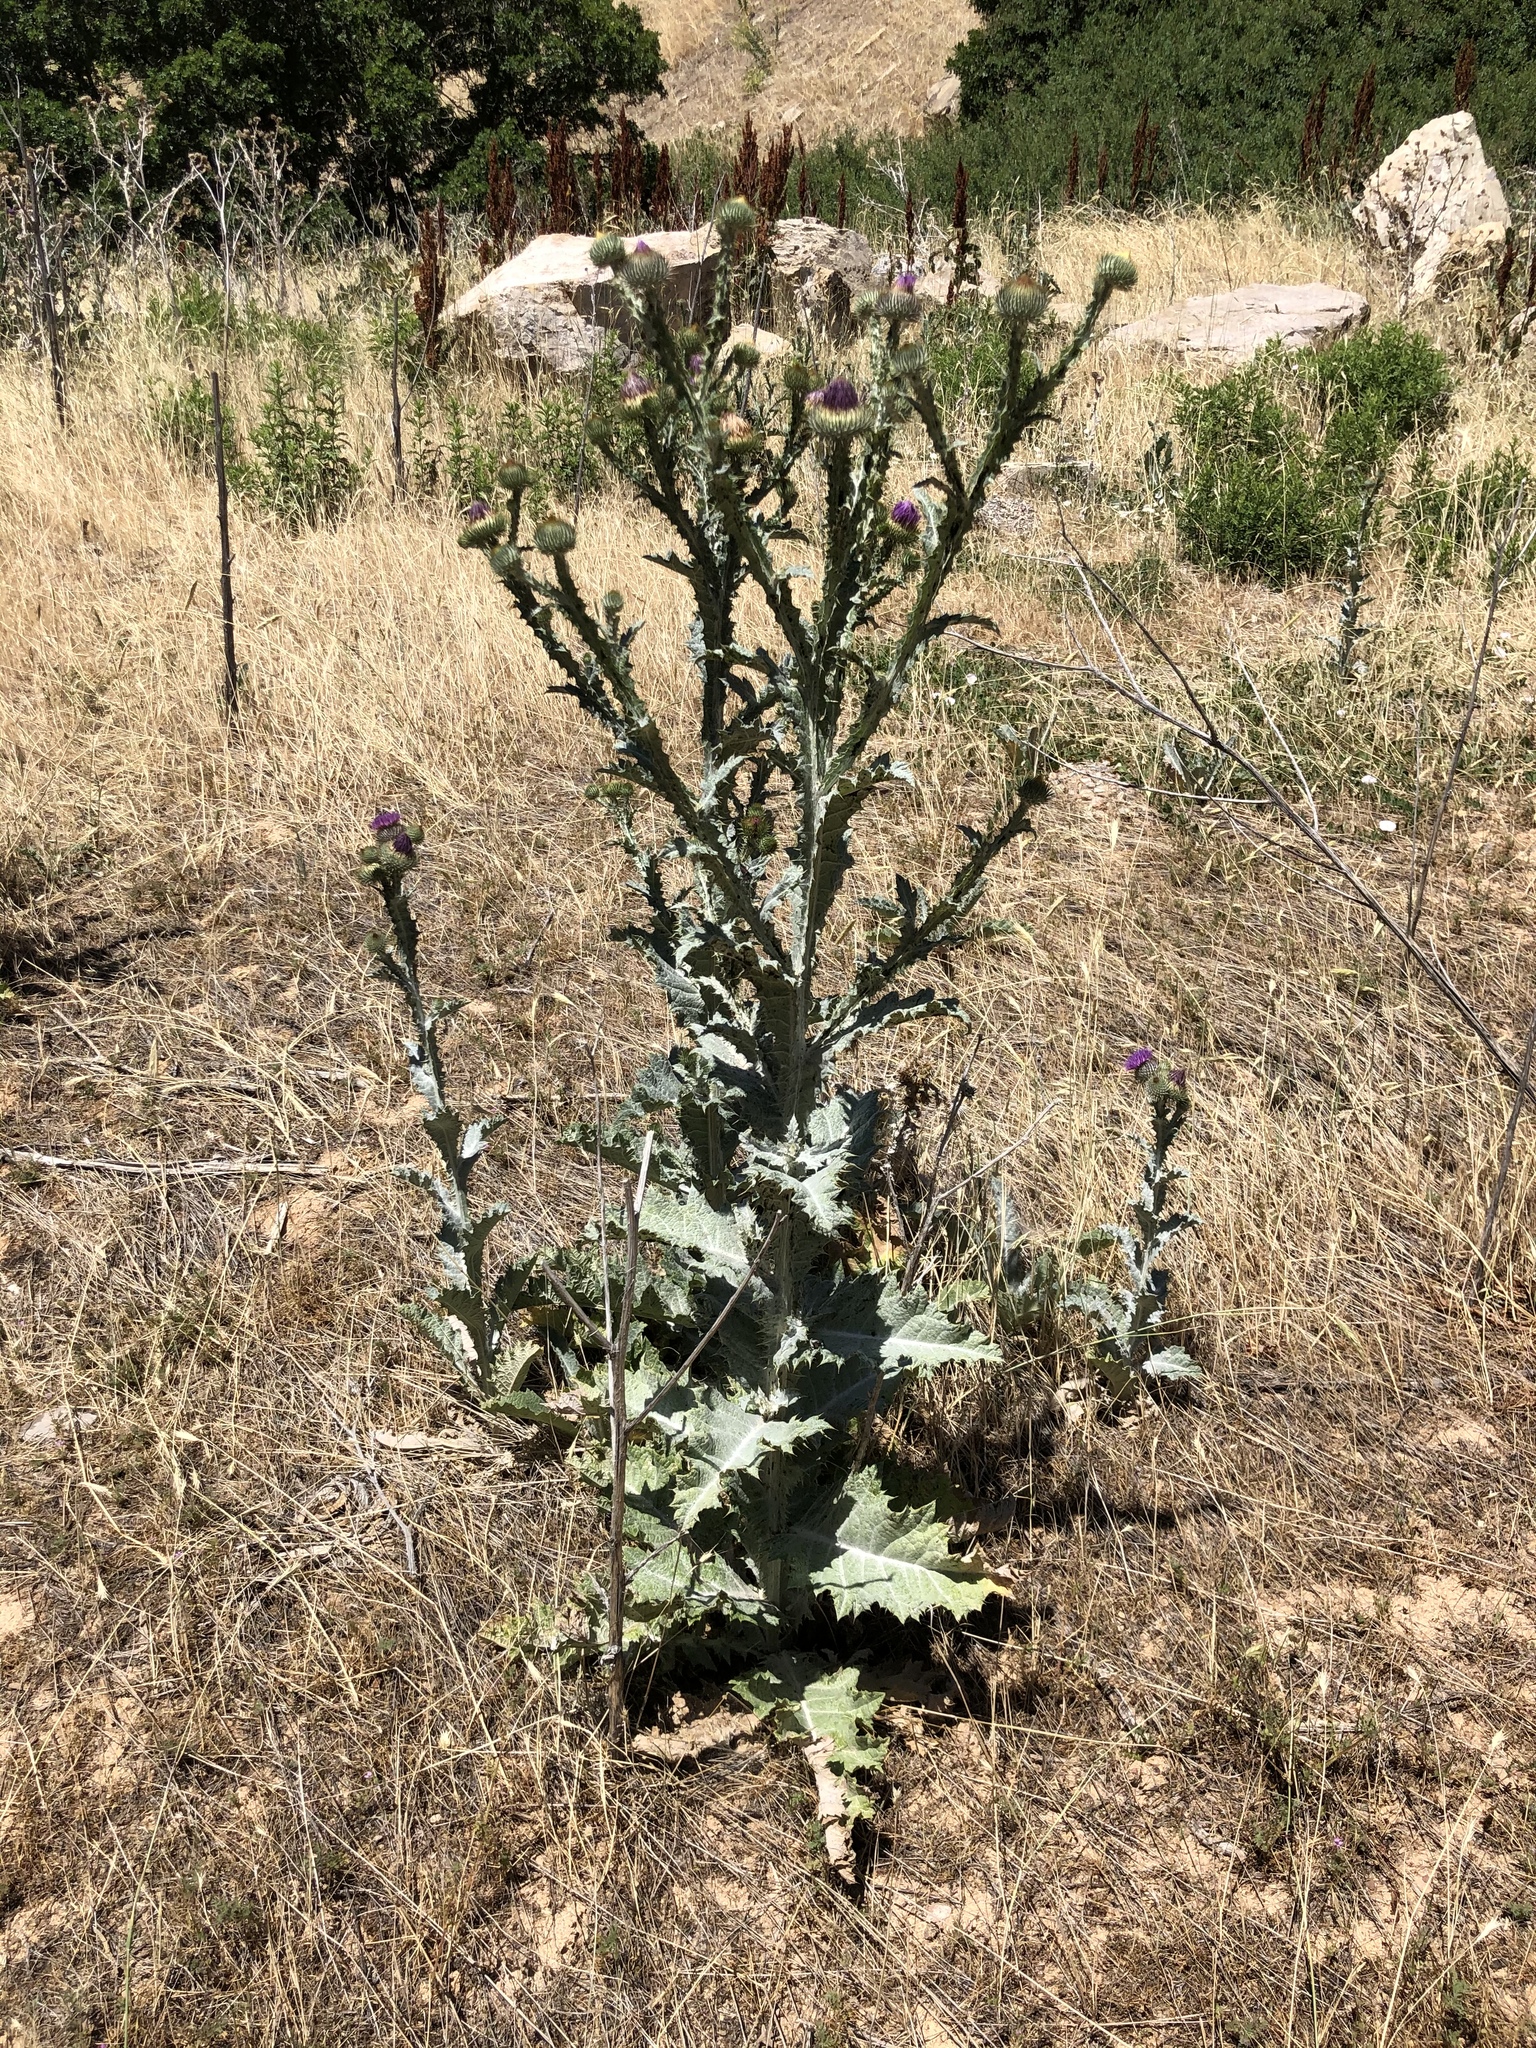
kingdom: Plantae
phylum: Tracheophyta
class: Magnoliopsida
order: Asterales
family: Asteraceae
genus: Onopordum
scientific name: Onopordum acanthium
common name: Scotch thistle
